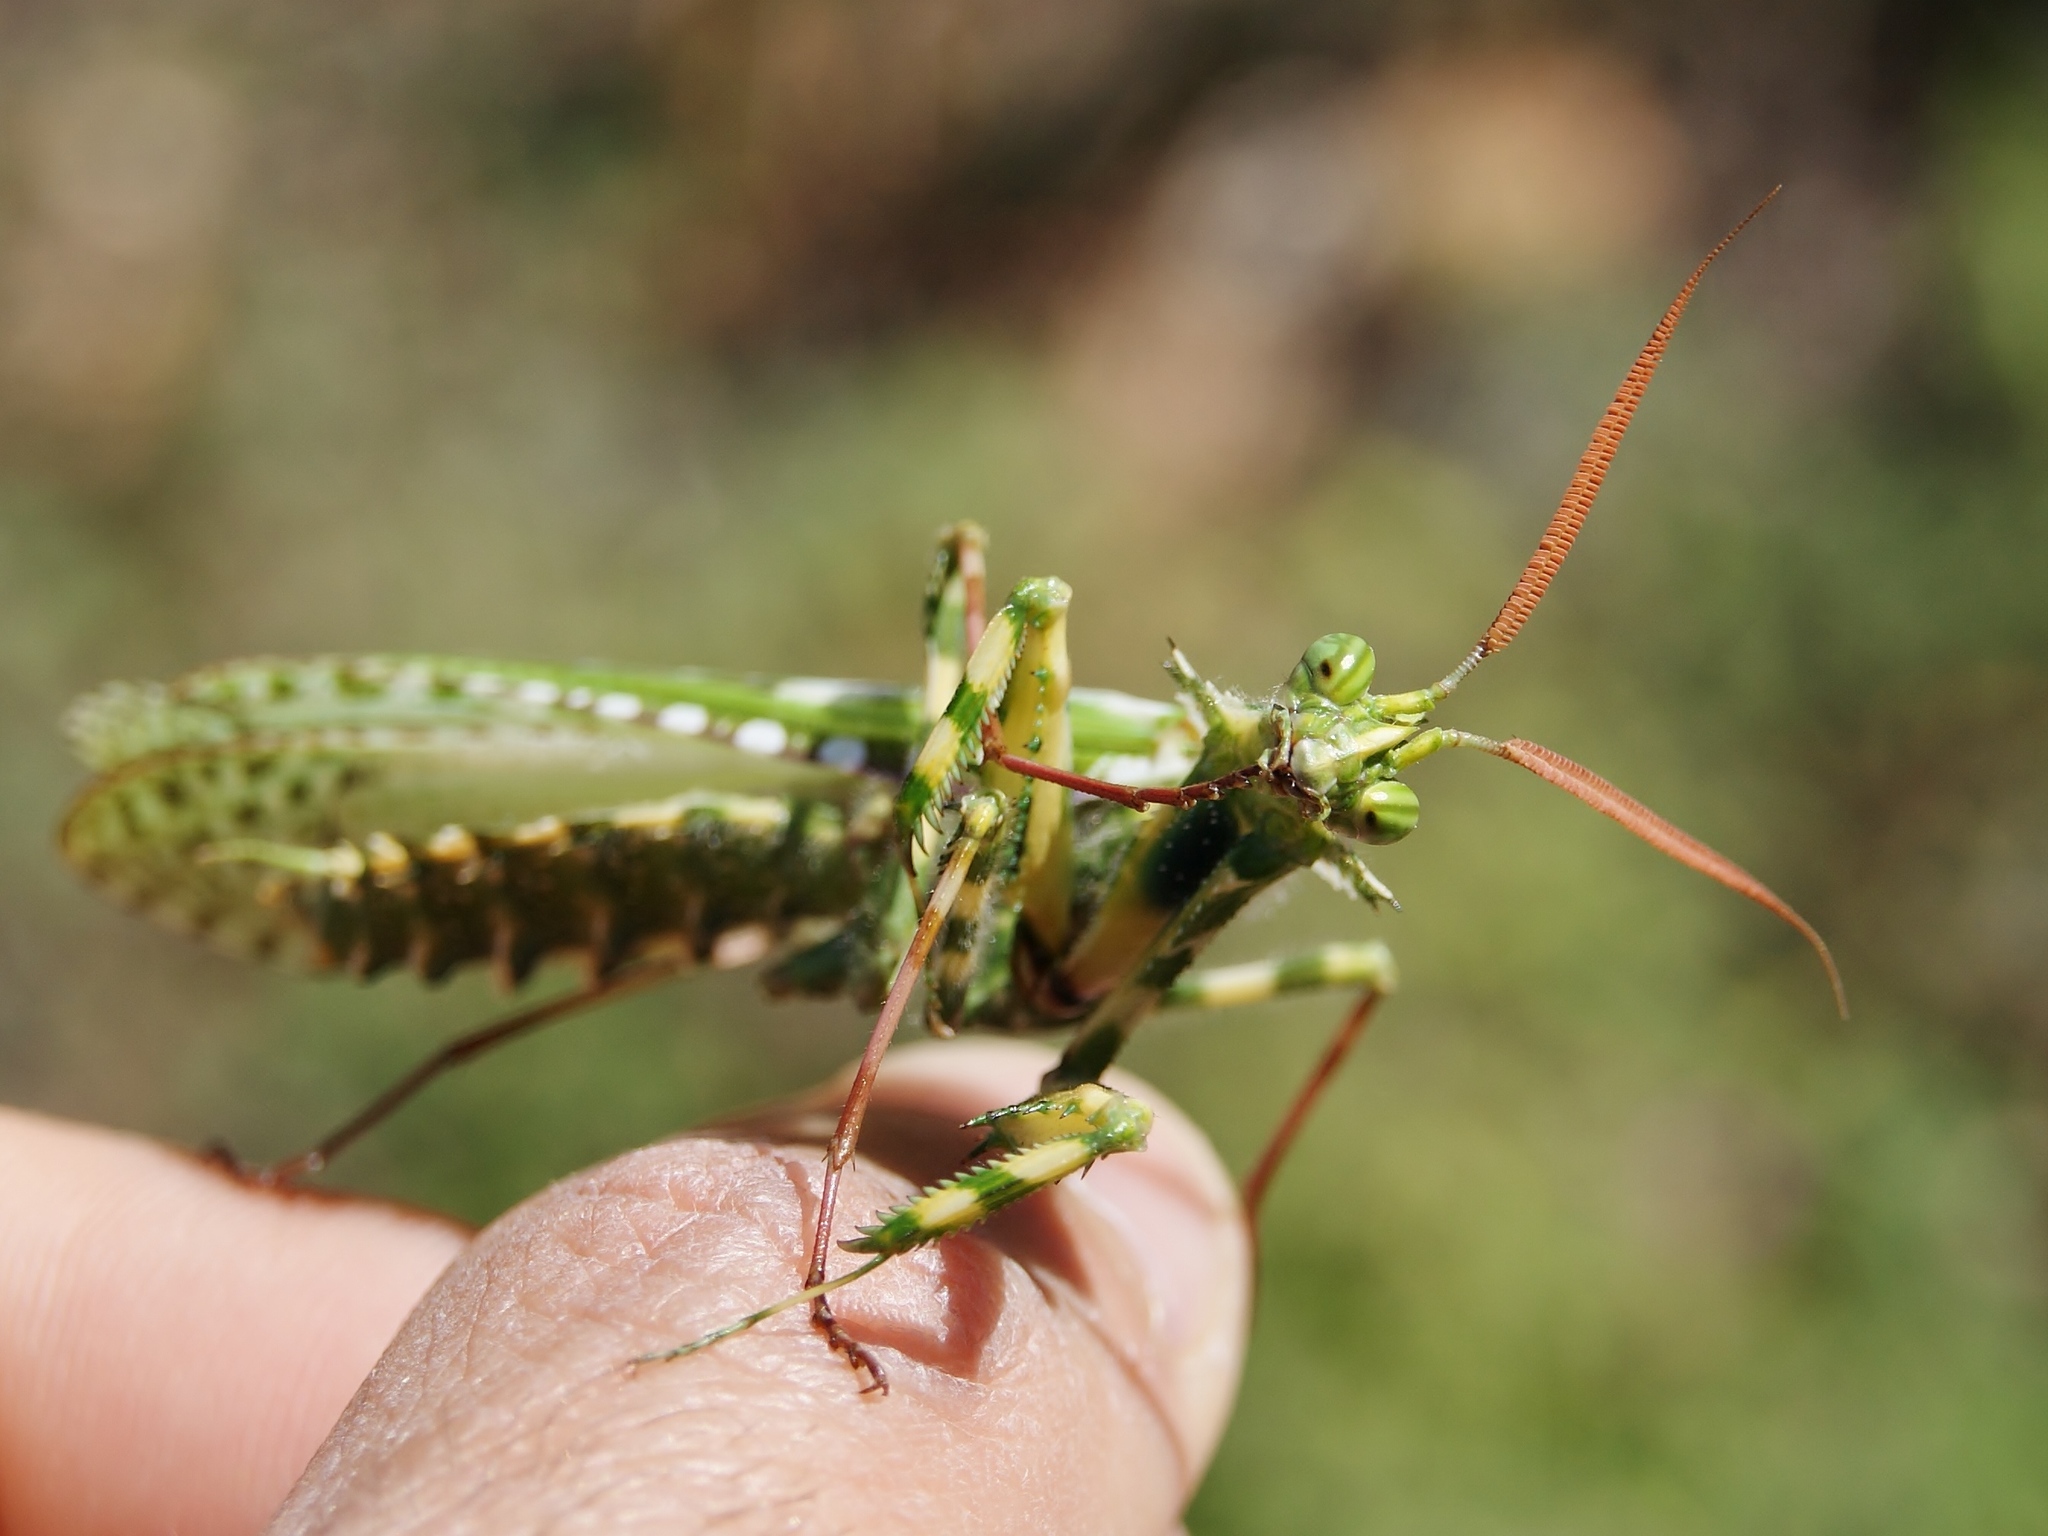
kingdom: Animalia
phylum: Arthropoda
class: Insecta
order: Mantodea
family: Empusidae
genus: Blepharopsis
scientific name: Blepharopsis mendica
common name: Devil's flower mantis
